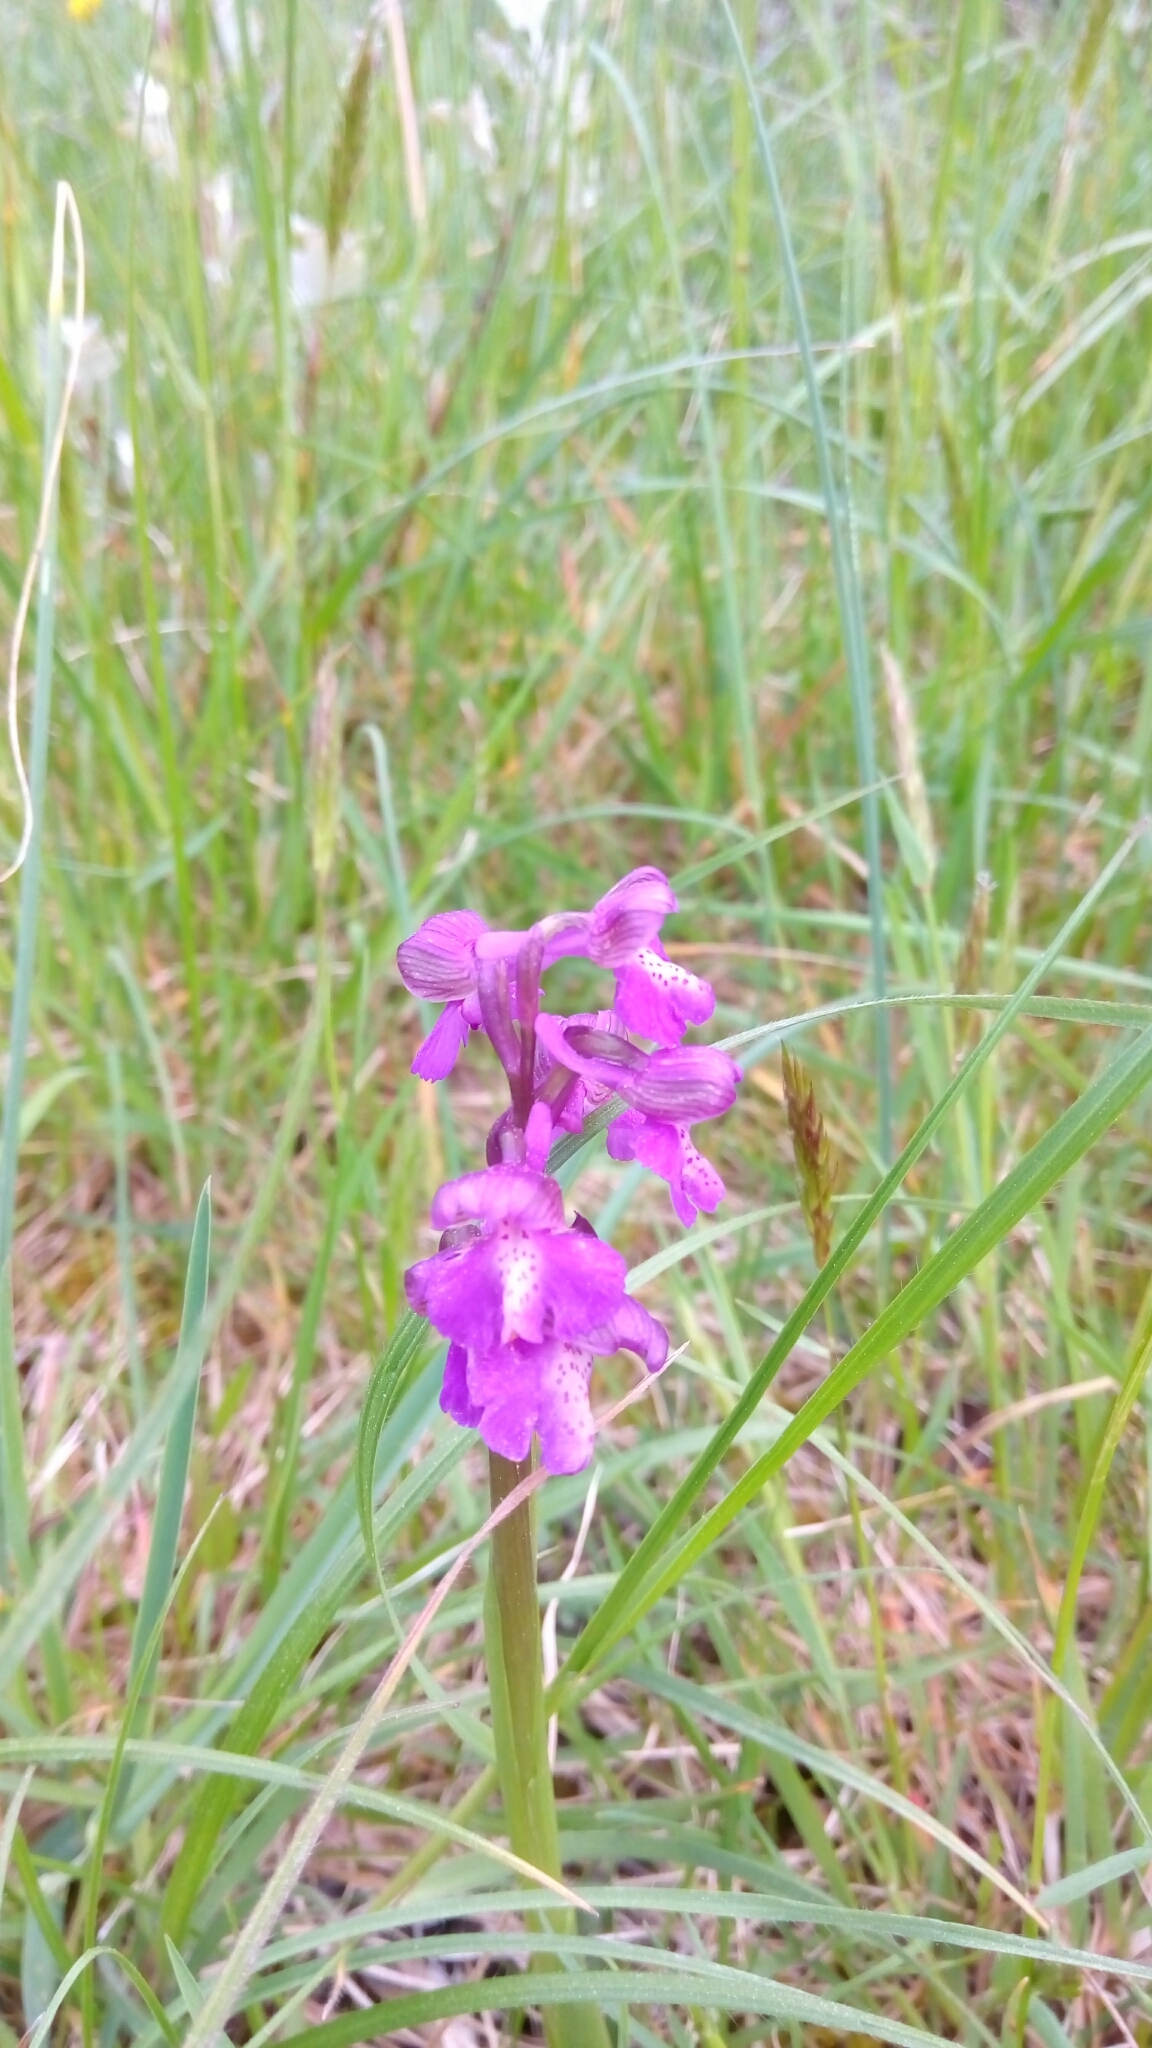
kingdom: Plantae
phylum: Tracheophyta
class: Liliopsida
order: Asparagales
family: Orchidaceae
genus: Anacamptis
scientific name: Anacamptis morio
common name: Green-winged orchid
